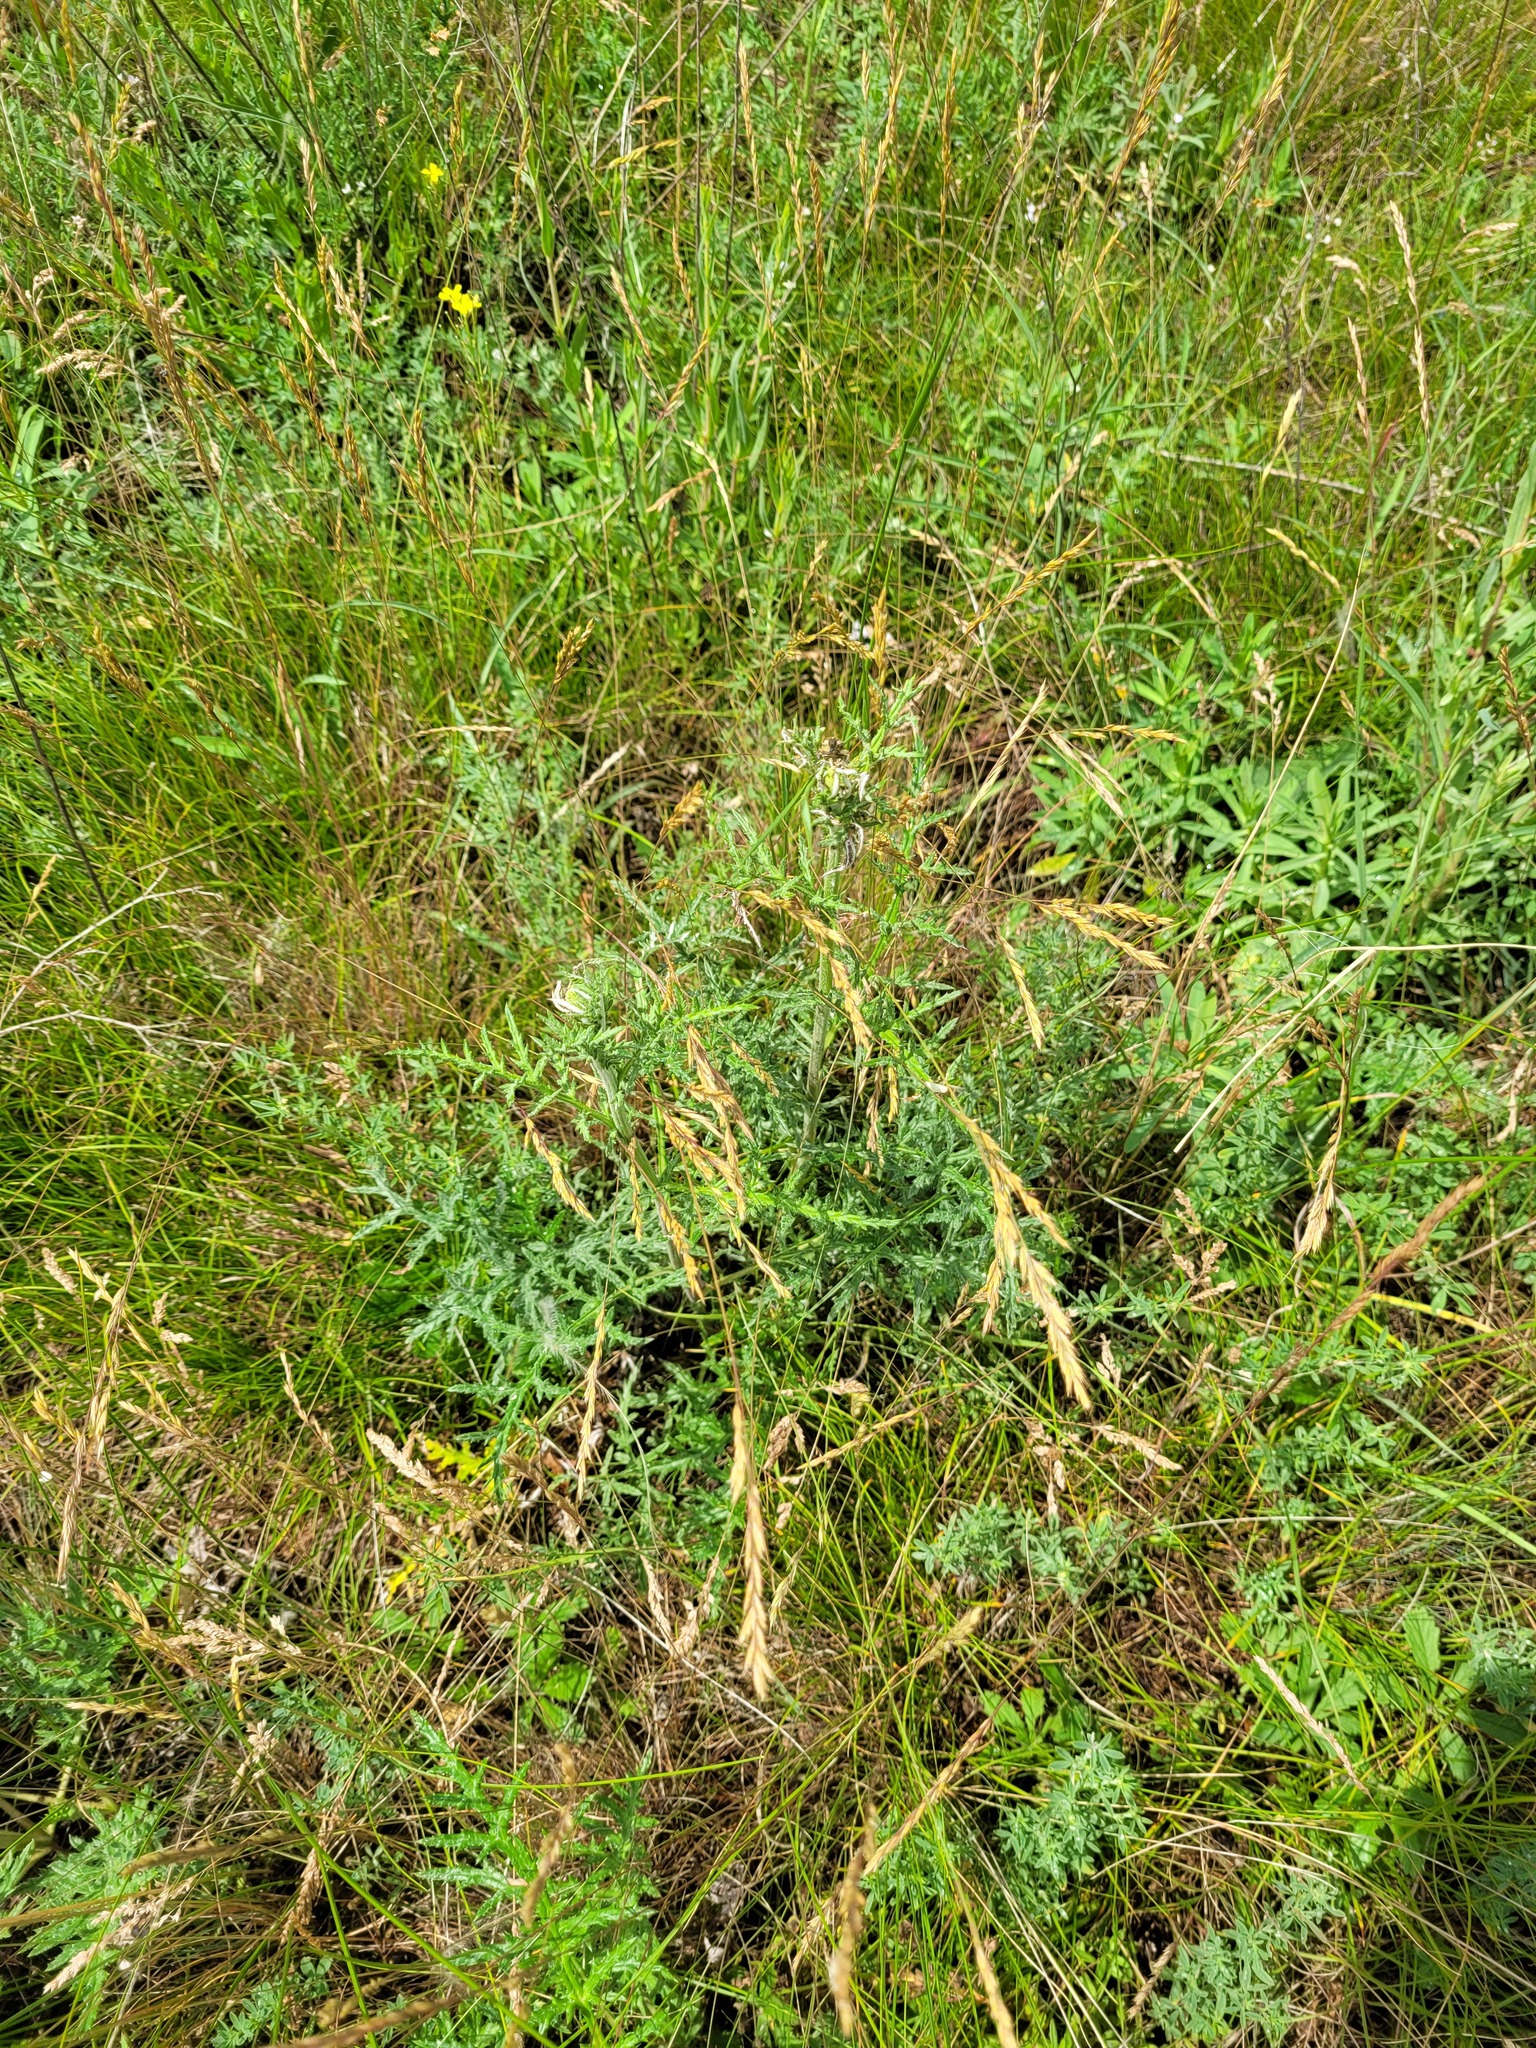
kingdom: Plantae
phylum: Tracheophyta
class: Magnoliopsida
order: Asterales
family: Asteraceae
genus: Echinops
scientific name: Echinops ritro
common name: Globe thistle
